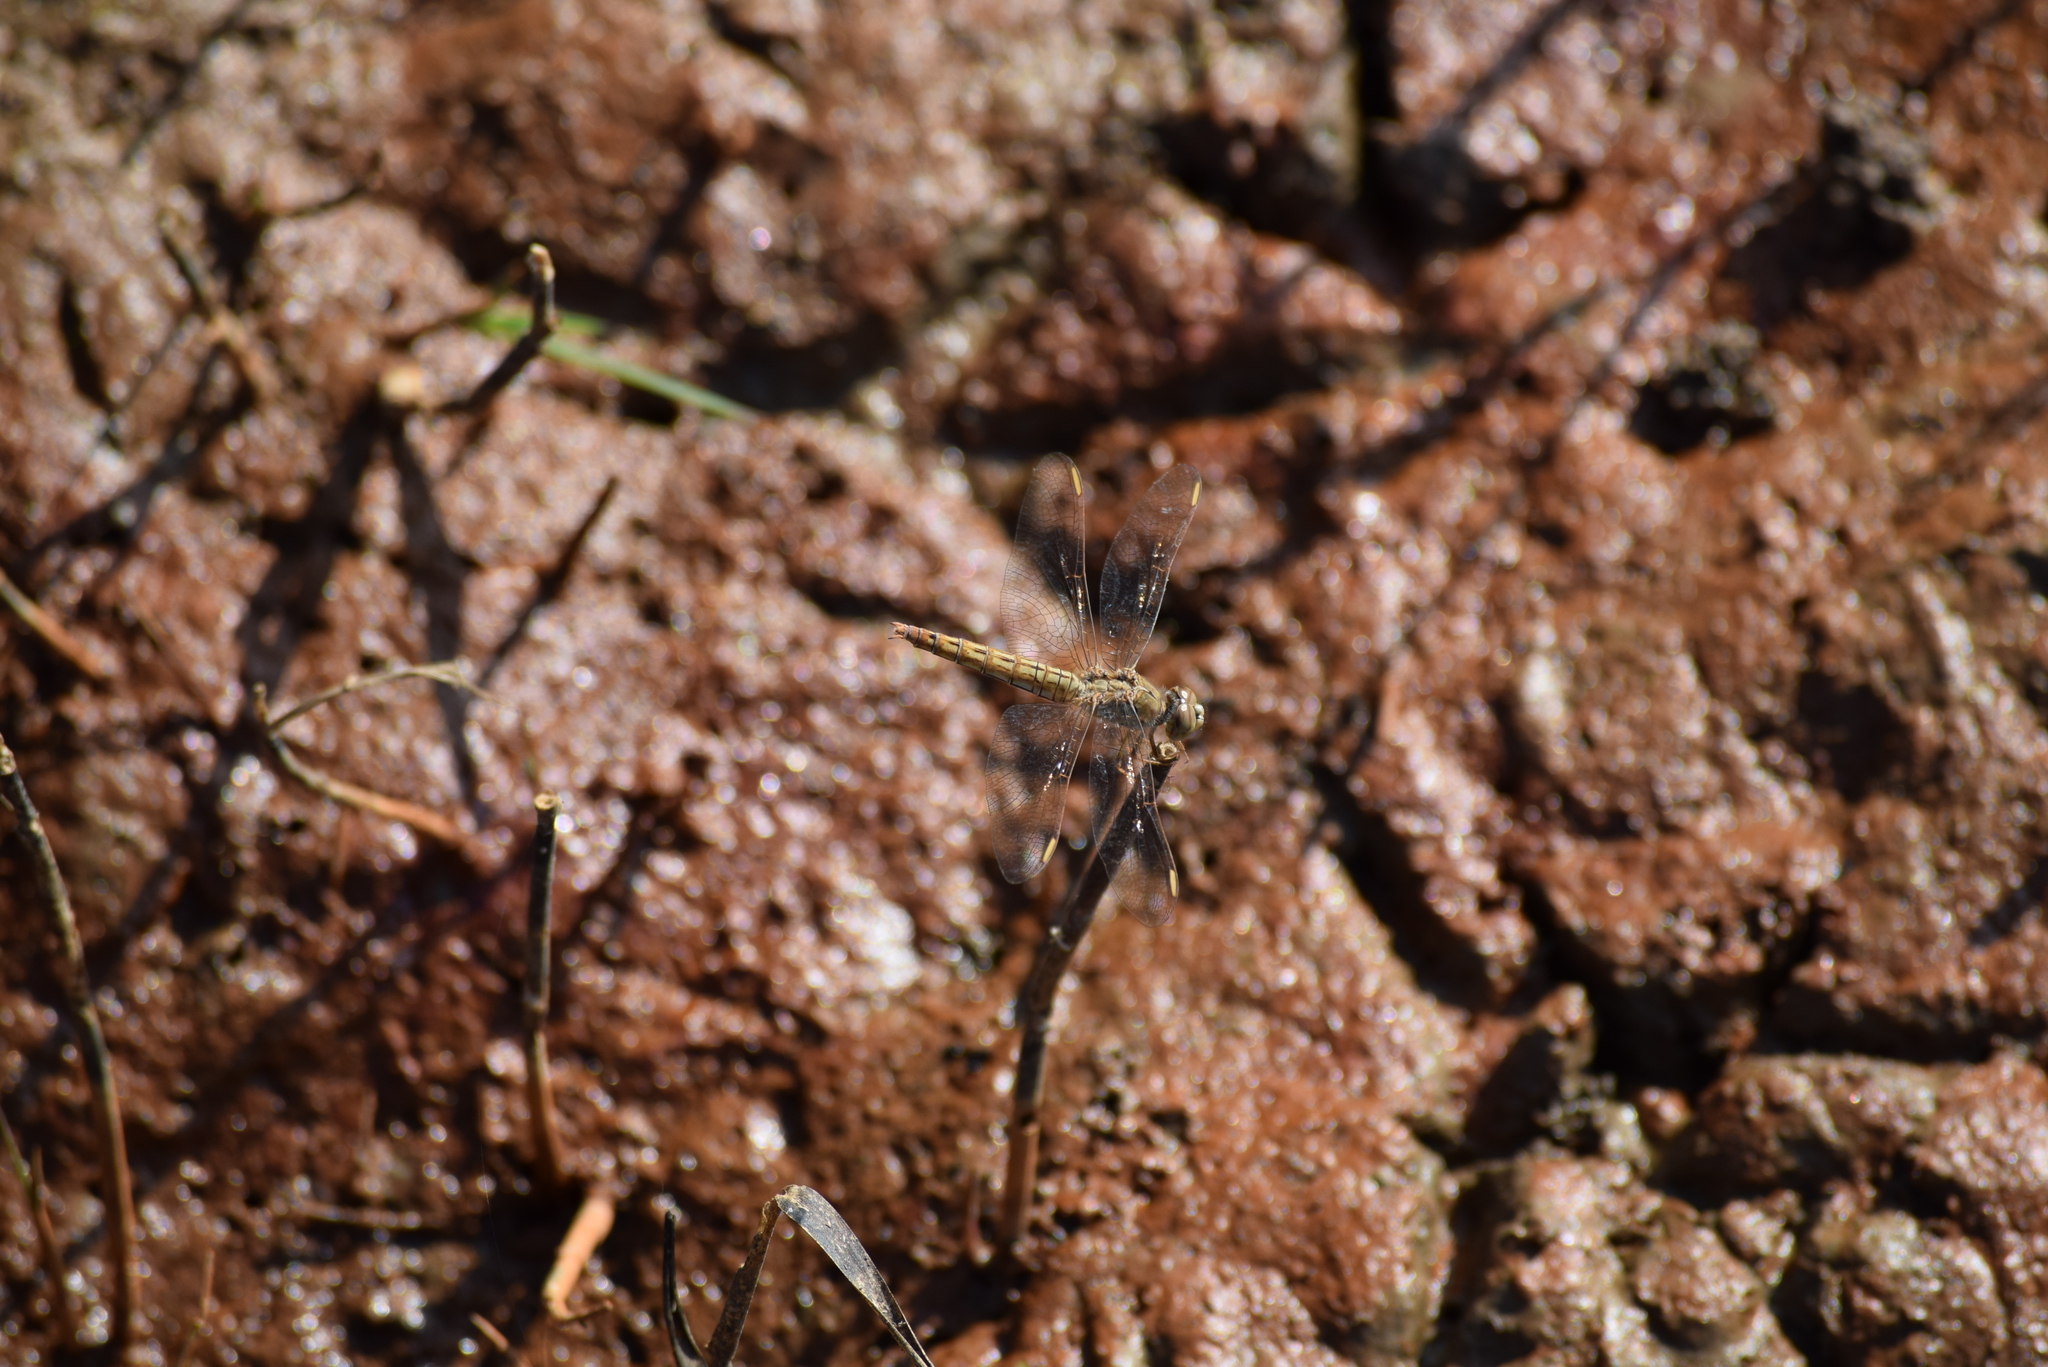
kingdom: Animalia
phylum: Arthropoda
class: Insecta
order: Odonata
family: Libellulidae
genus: Brachythemis
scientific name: Brachythemis contaminata
